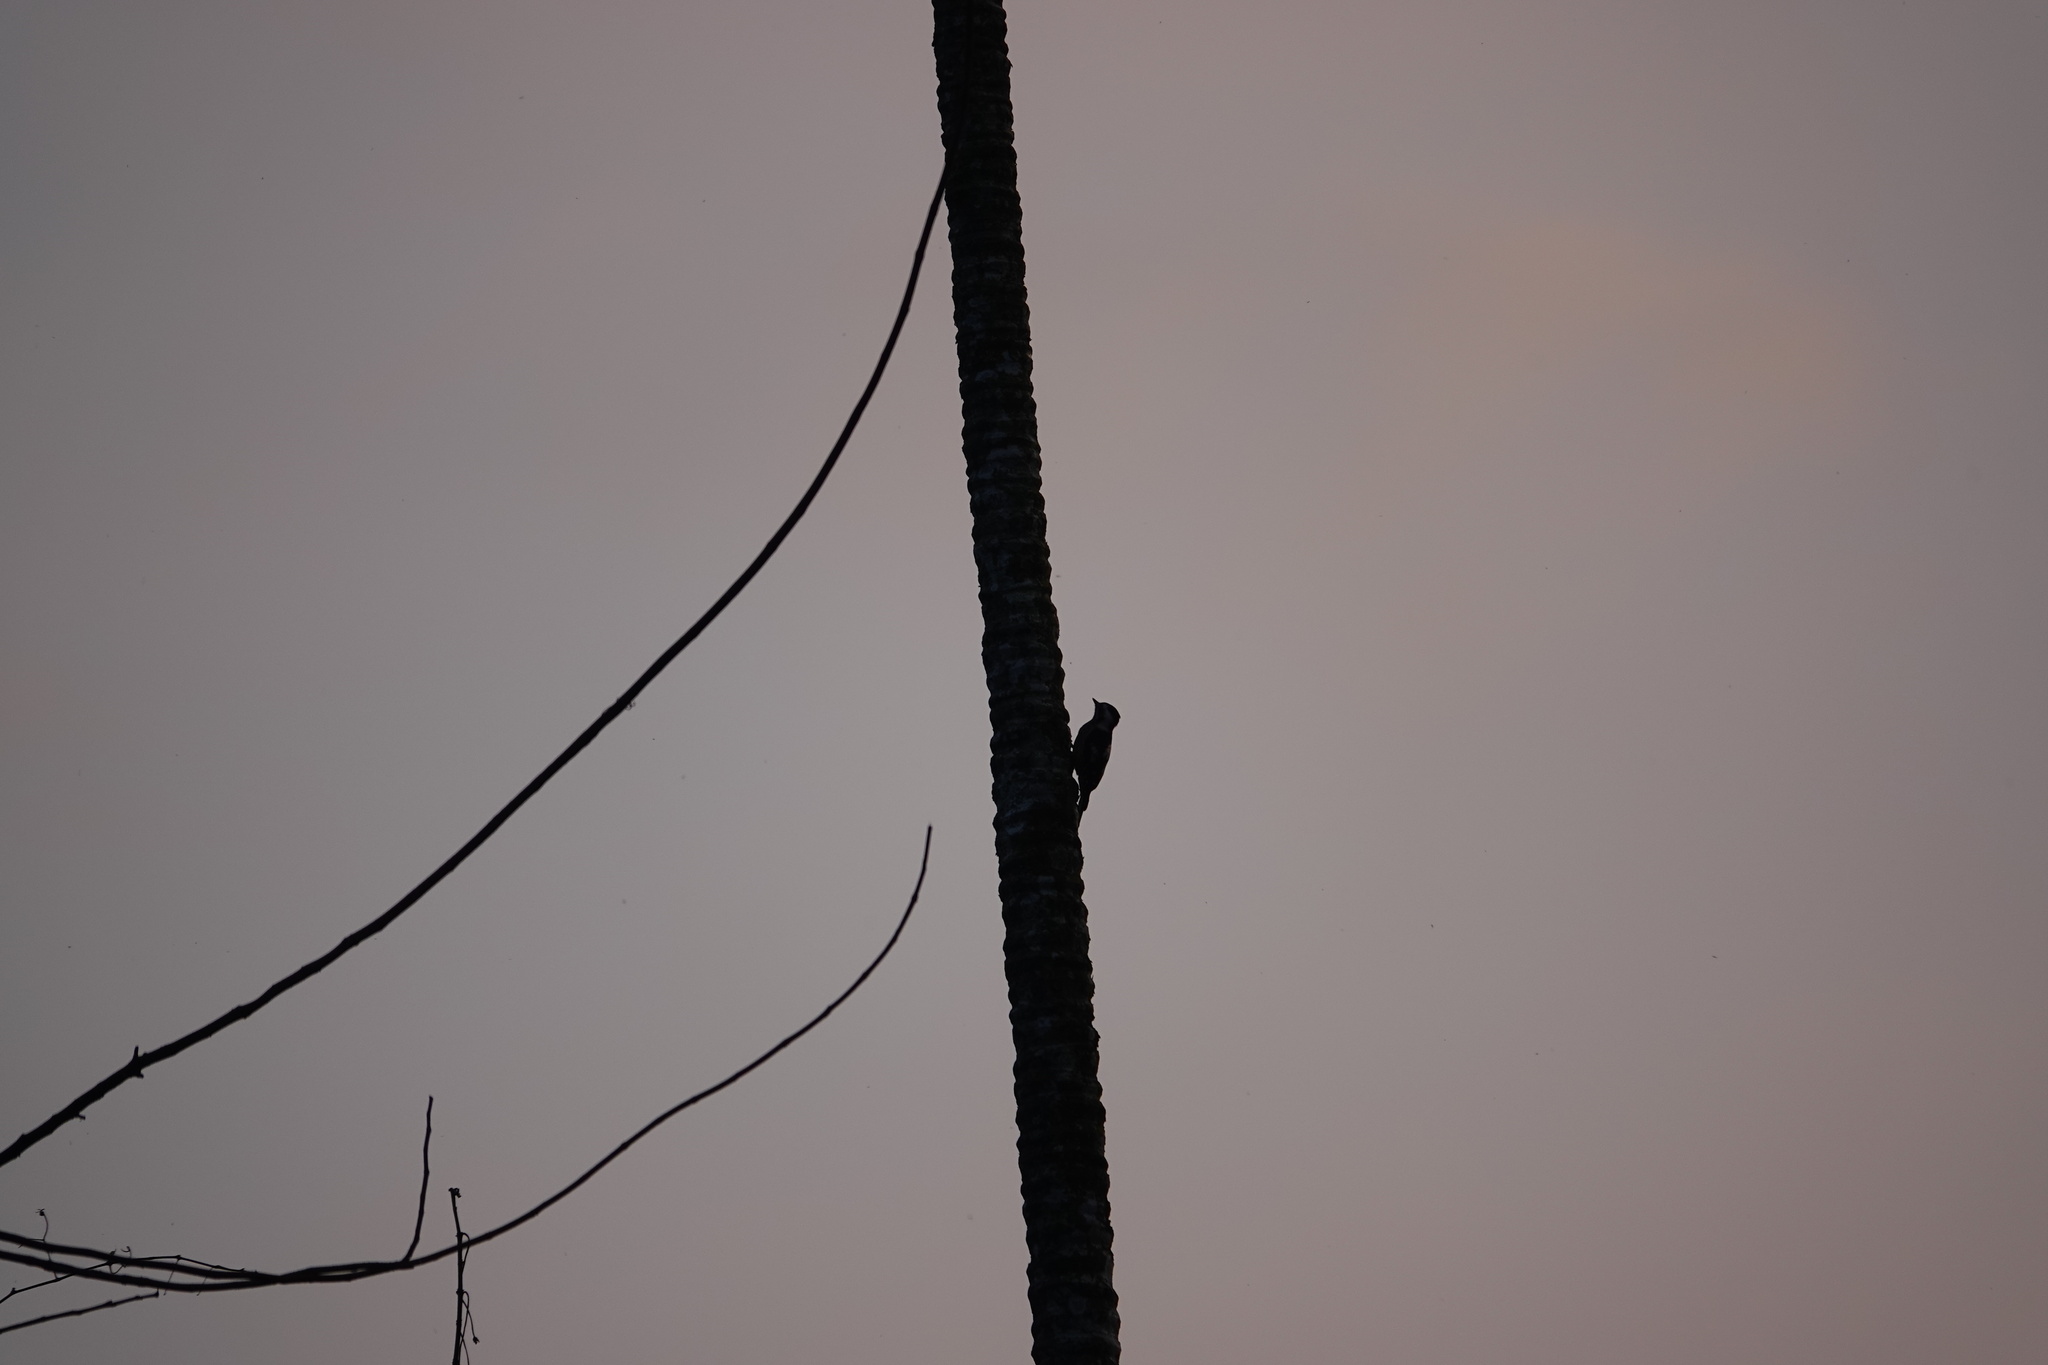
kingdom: Animalia
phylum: Chordata
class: Aves
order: Piciformes
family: Picidae
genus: Yungipicus
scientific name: Yungipicus canicapillus
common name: Grey-capped pygmy woodpecker
